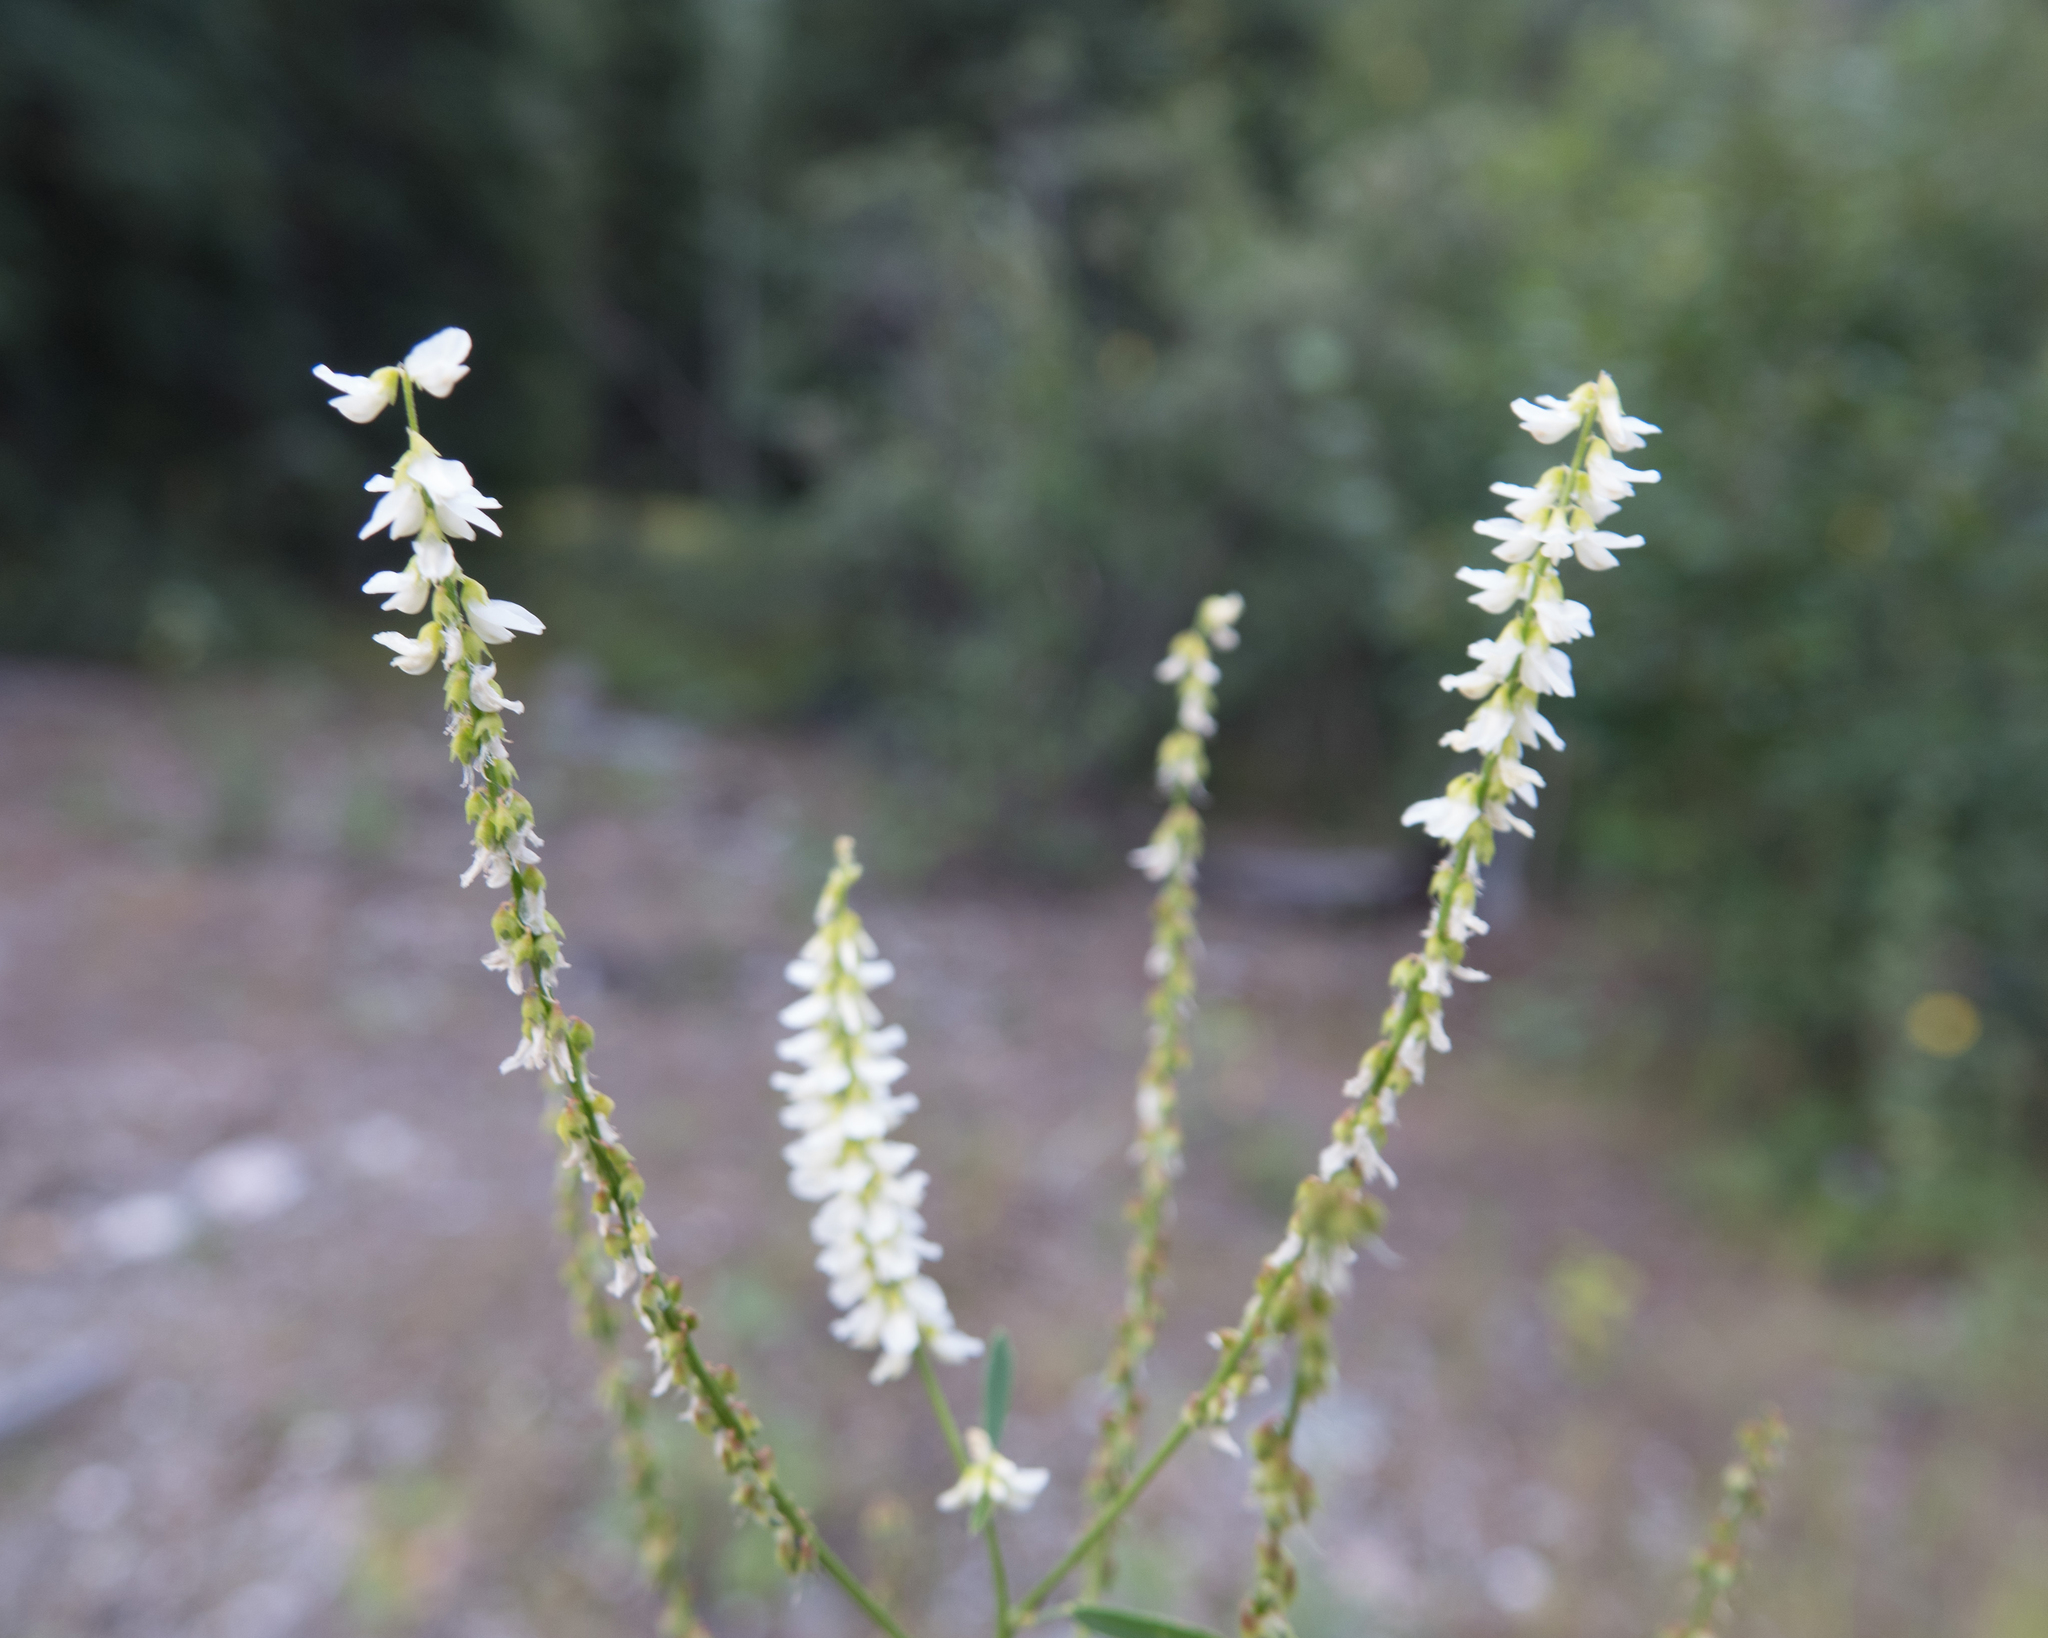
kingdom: Plantae
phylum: Tracheophyta
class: Magnoliopsida
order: Fabales
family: Fabaceae
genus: Melilotus
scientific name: Melilotus albus
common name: White melilot
